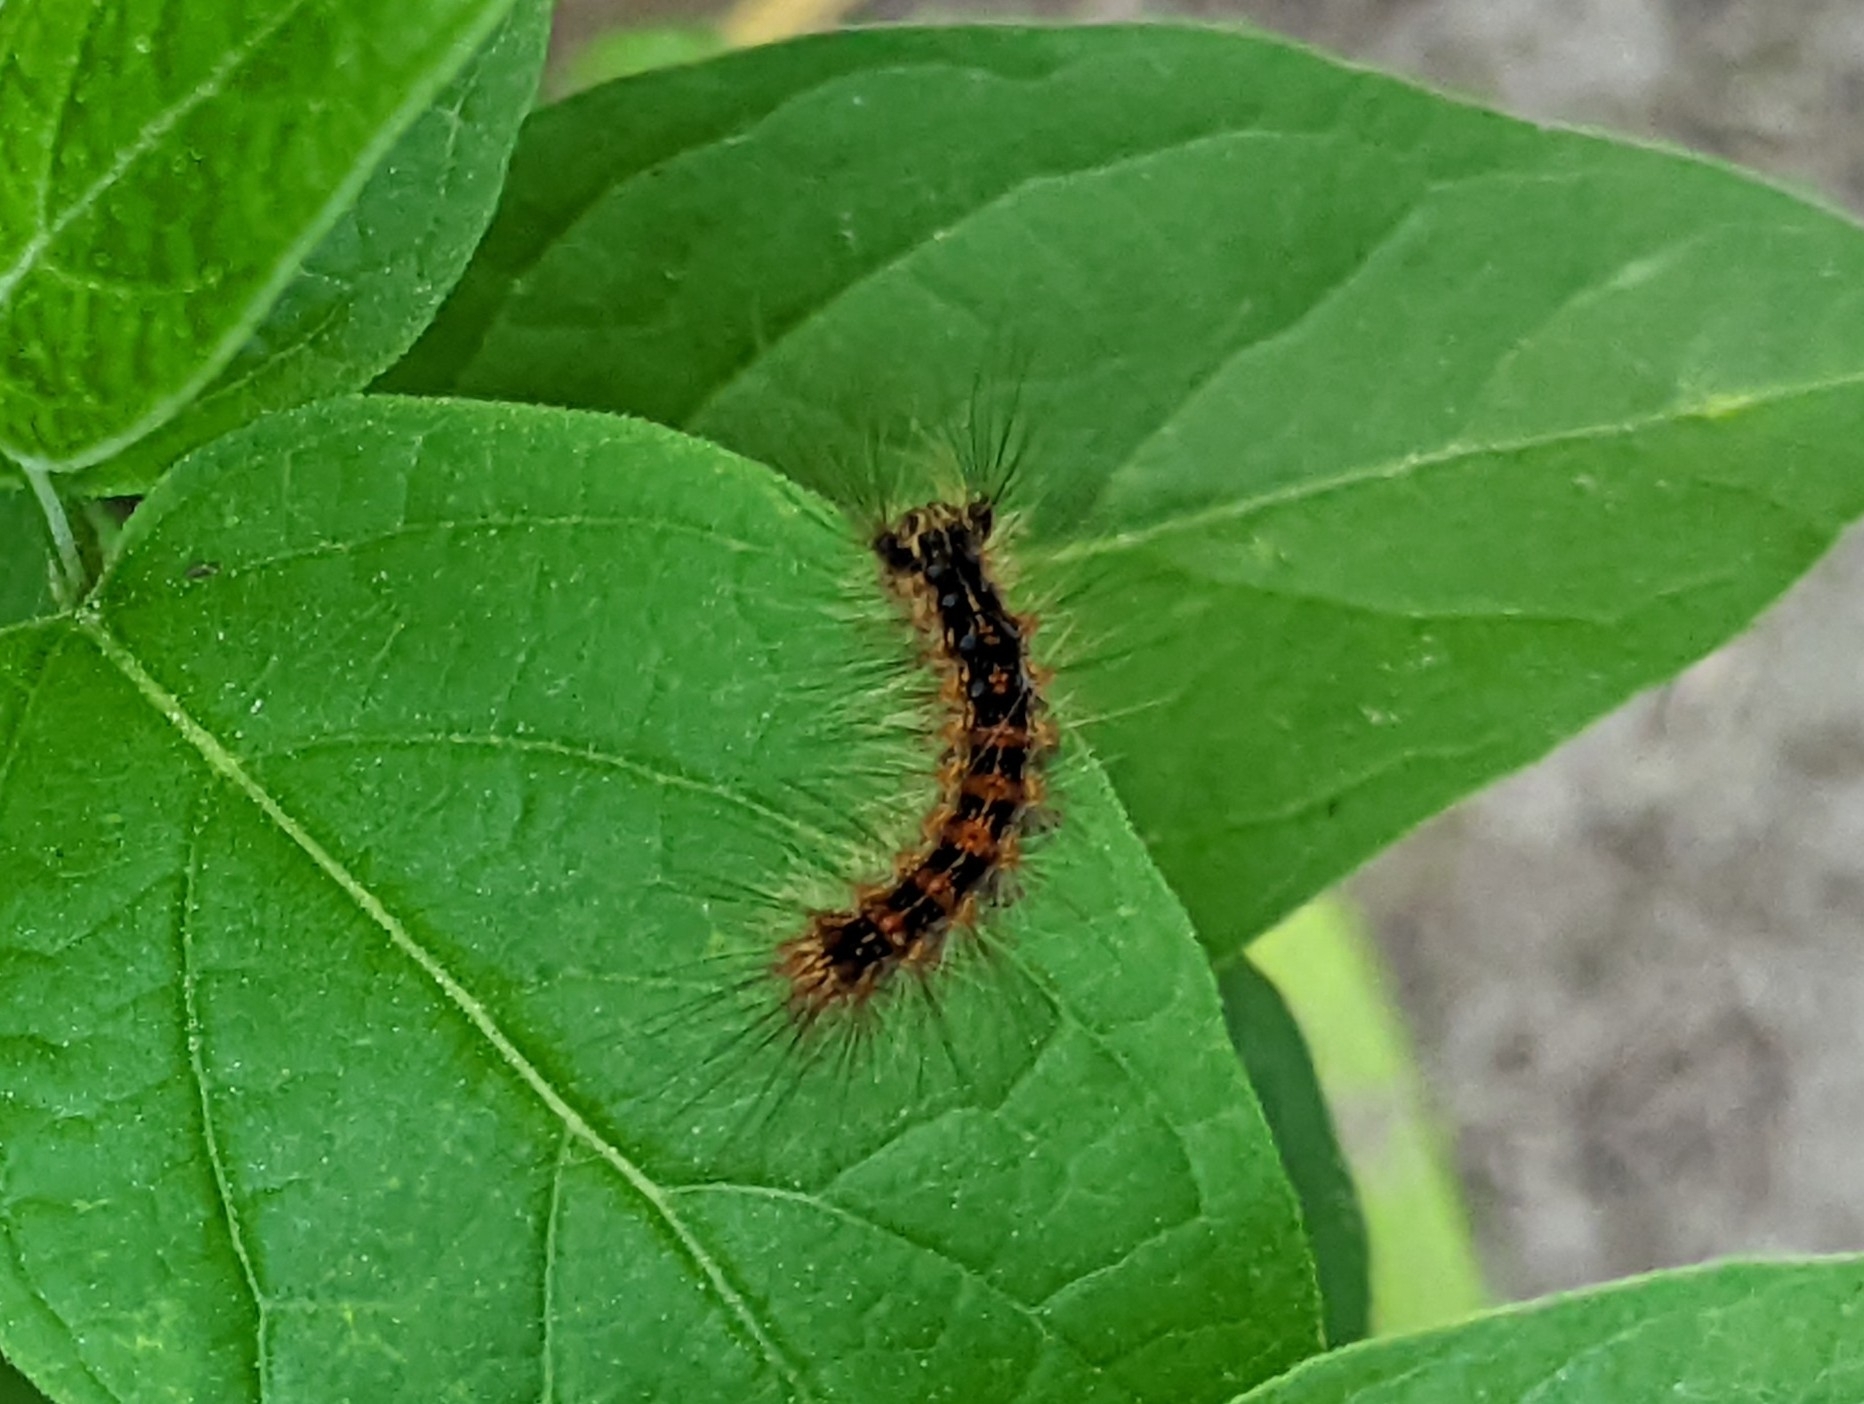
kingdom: Animalia
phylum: Arthropoda
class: Insecta
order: Lepidoptera
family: Erebidae
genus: Lymantria
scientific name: Lymantria dispar
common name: Gypsy moth
